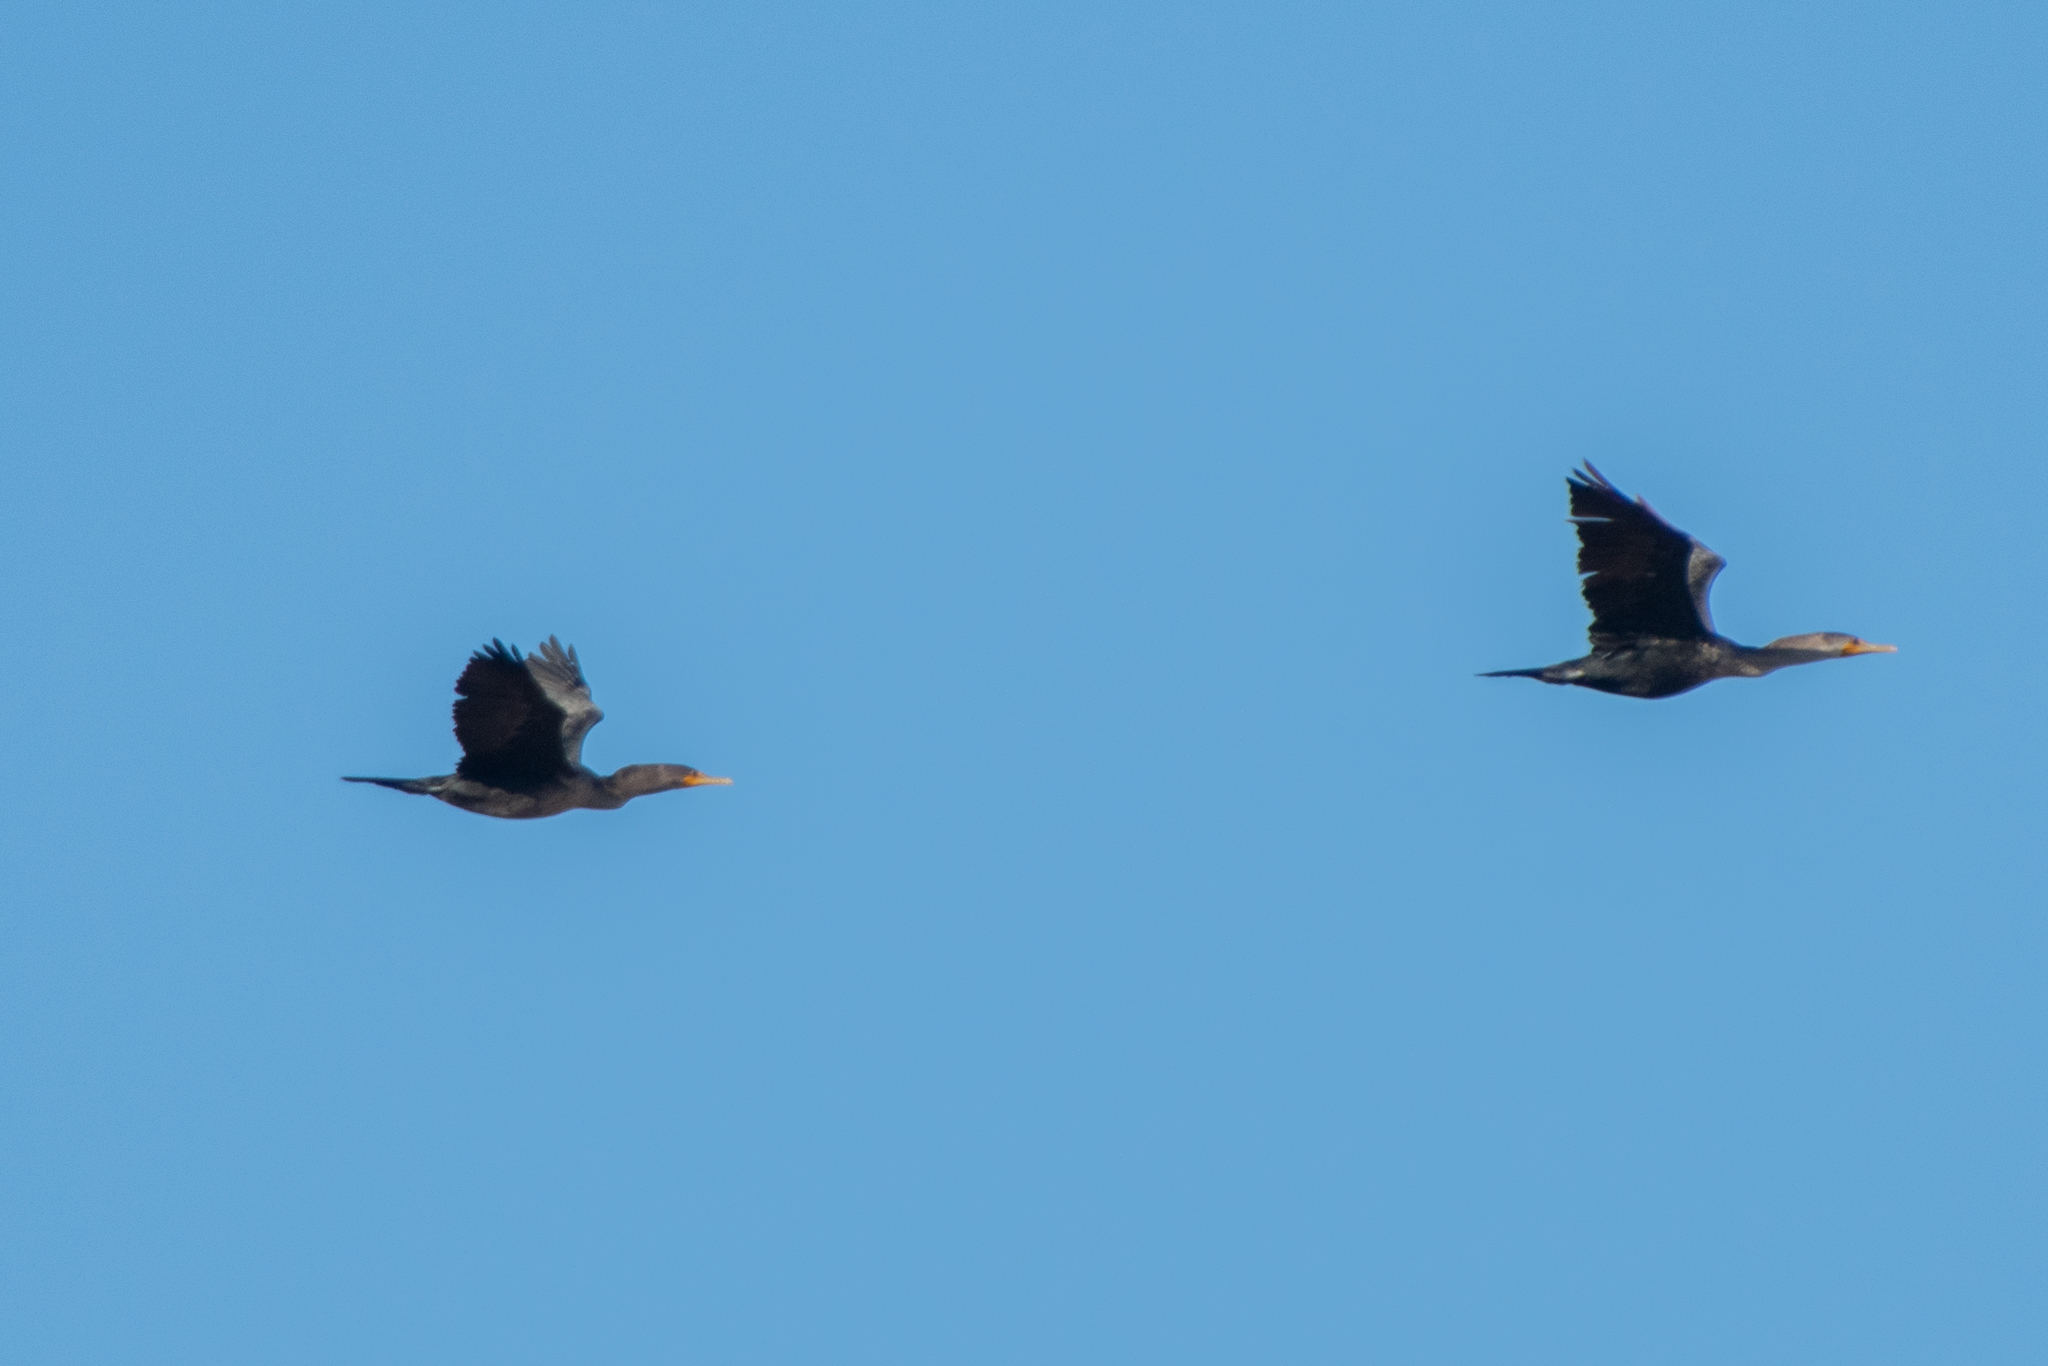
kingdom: Animalia
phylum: Chordata
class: Aves
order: Suliformes
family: Phalacrocoracidae
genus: Phalacrocorax
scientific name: Phalacrocorax auritus
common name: Double-crested cormorant
